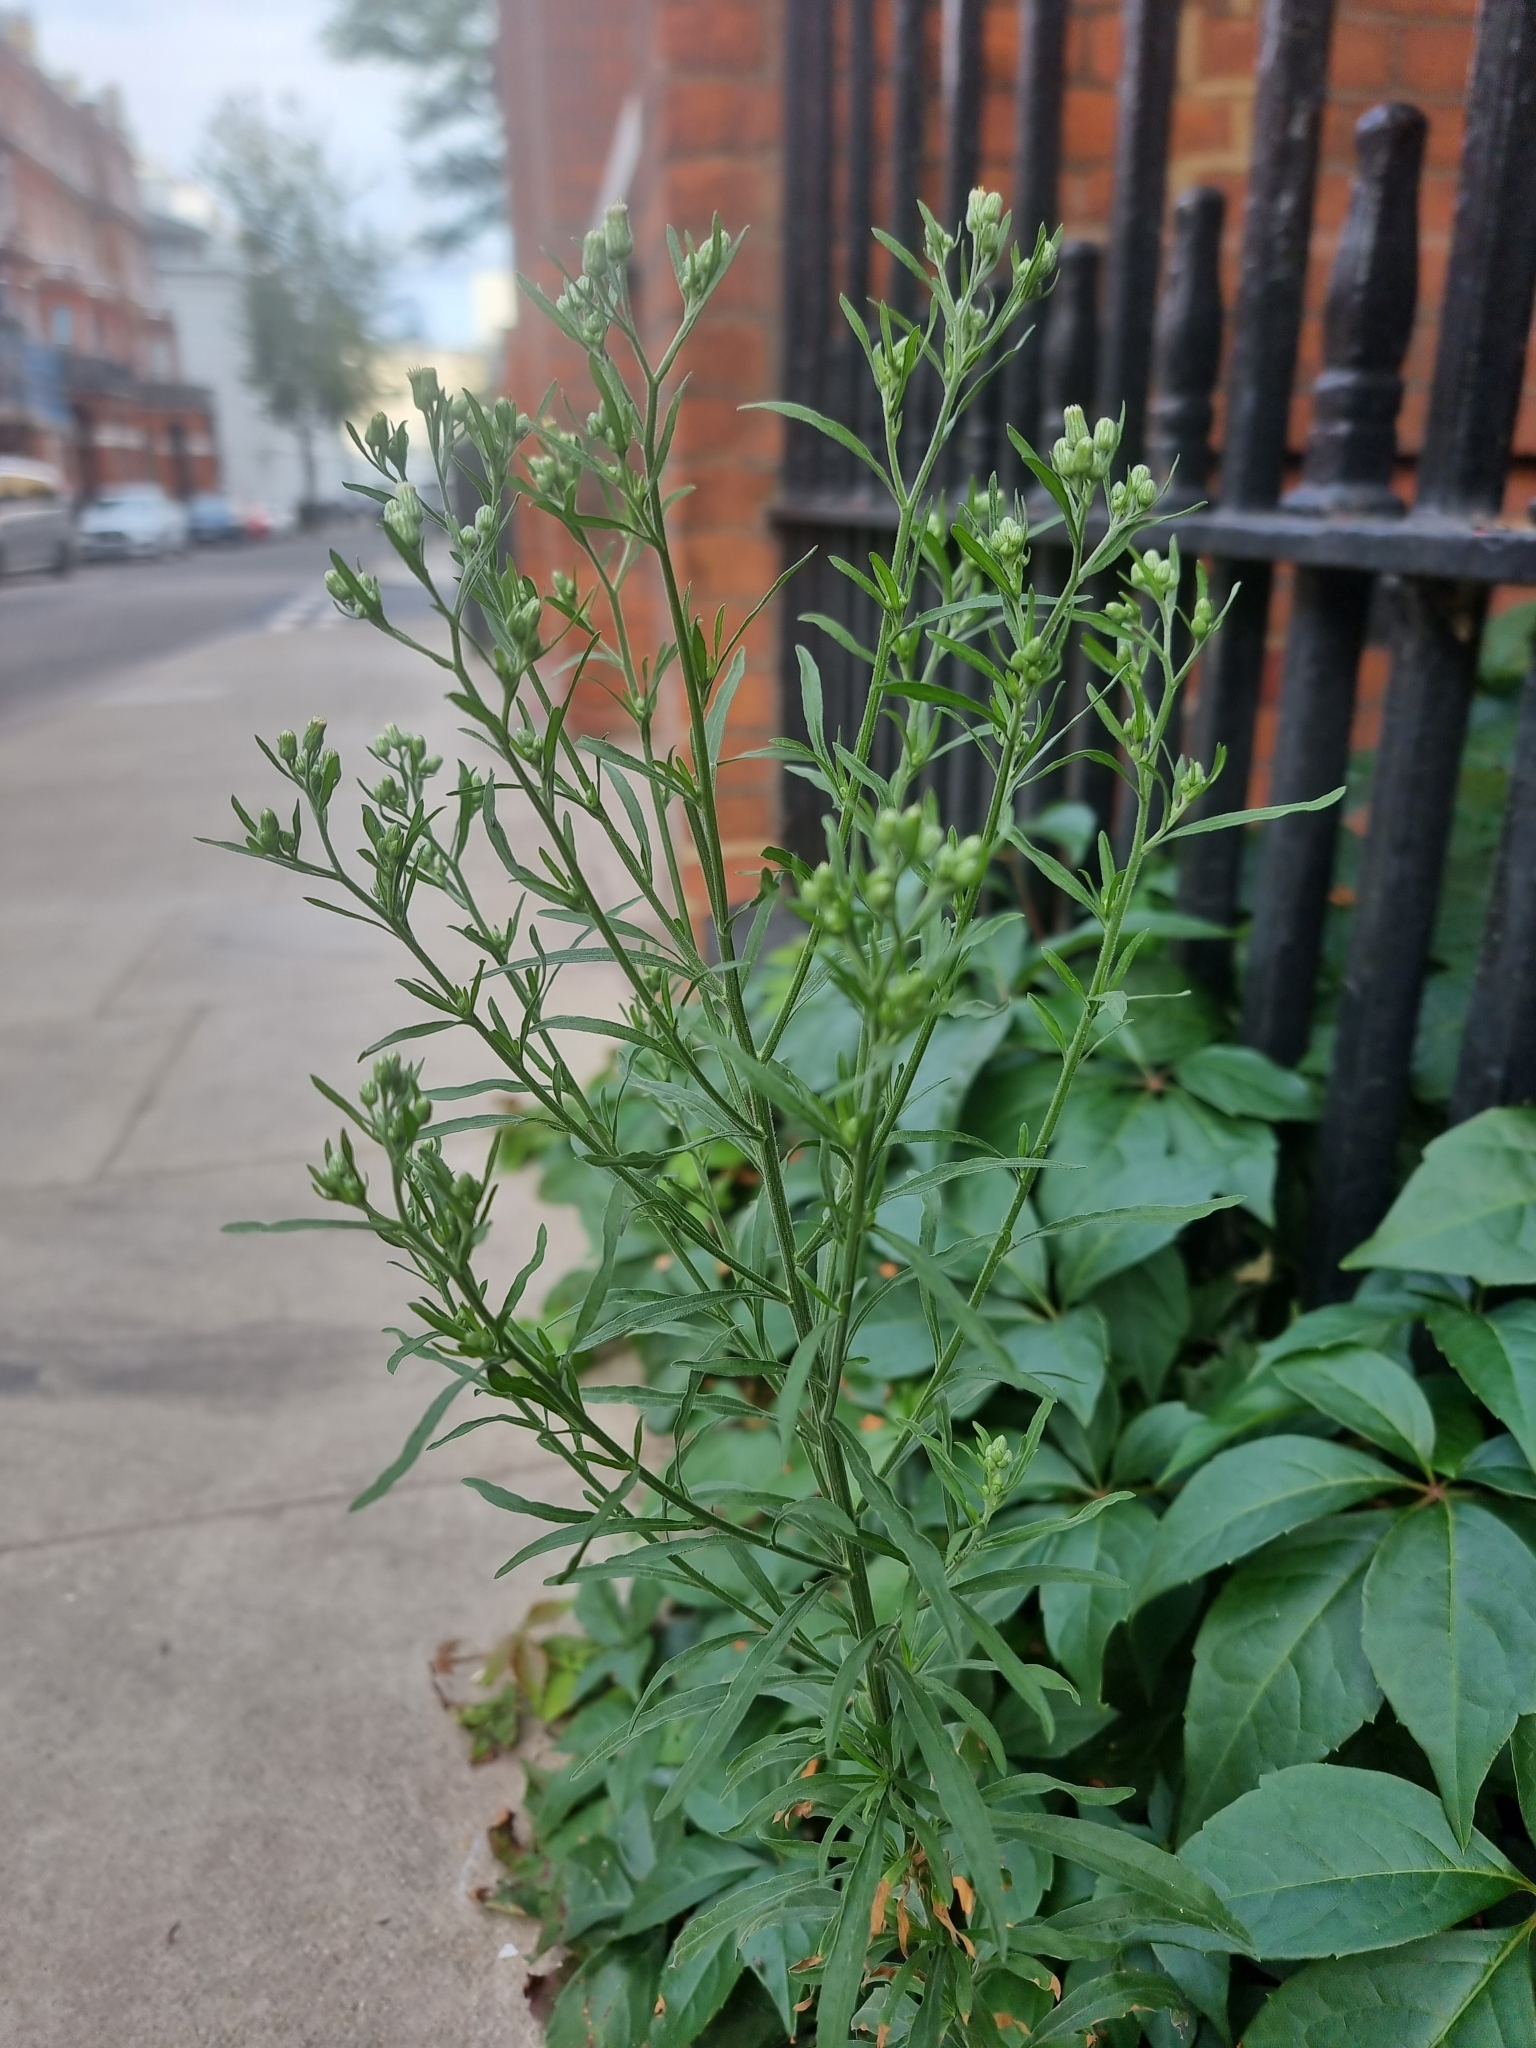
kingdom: Plantae
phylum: Tracheophyta
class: Magnoliopsida
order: Asterales
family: Asteraceae
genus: Erigeron
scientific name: Erigeron sumatrensis
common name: Daisy
